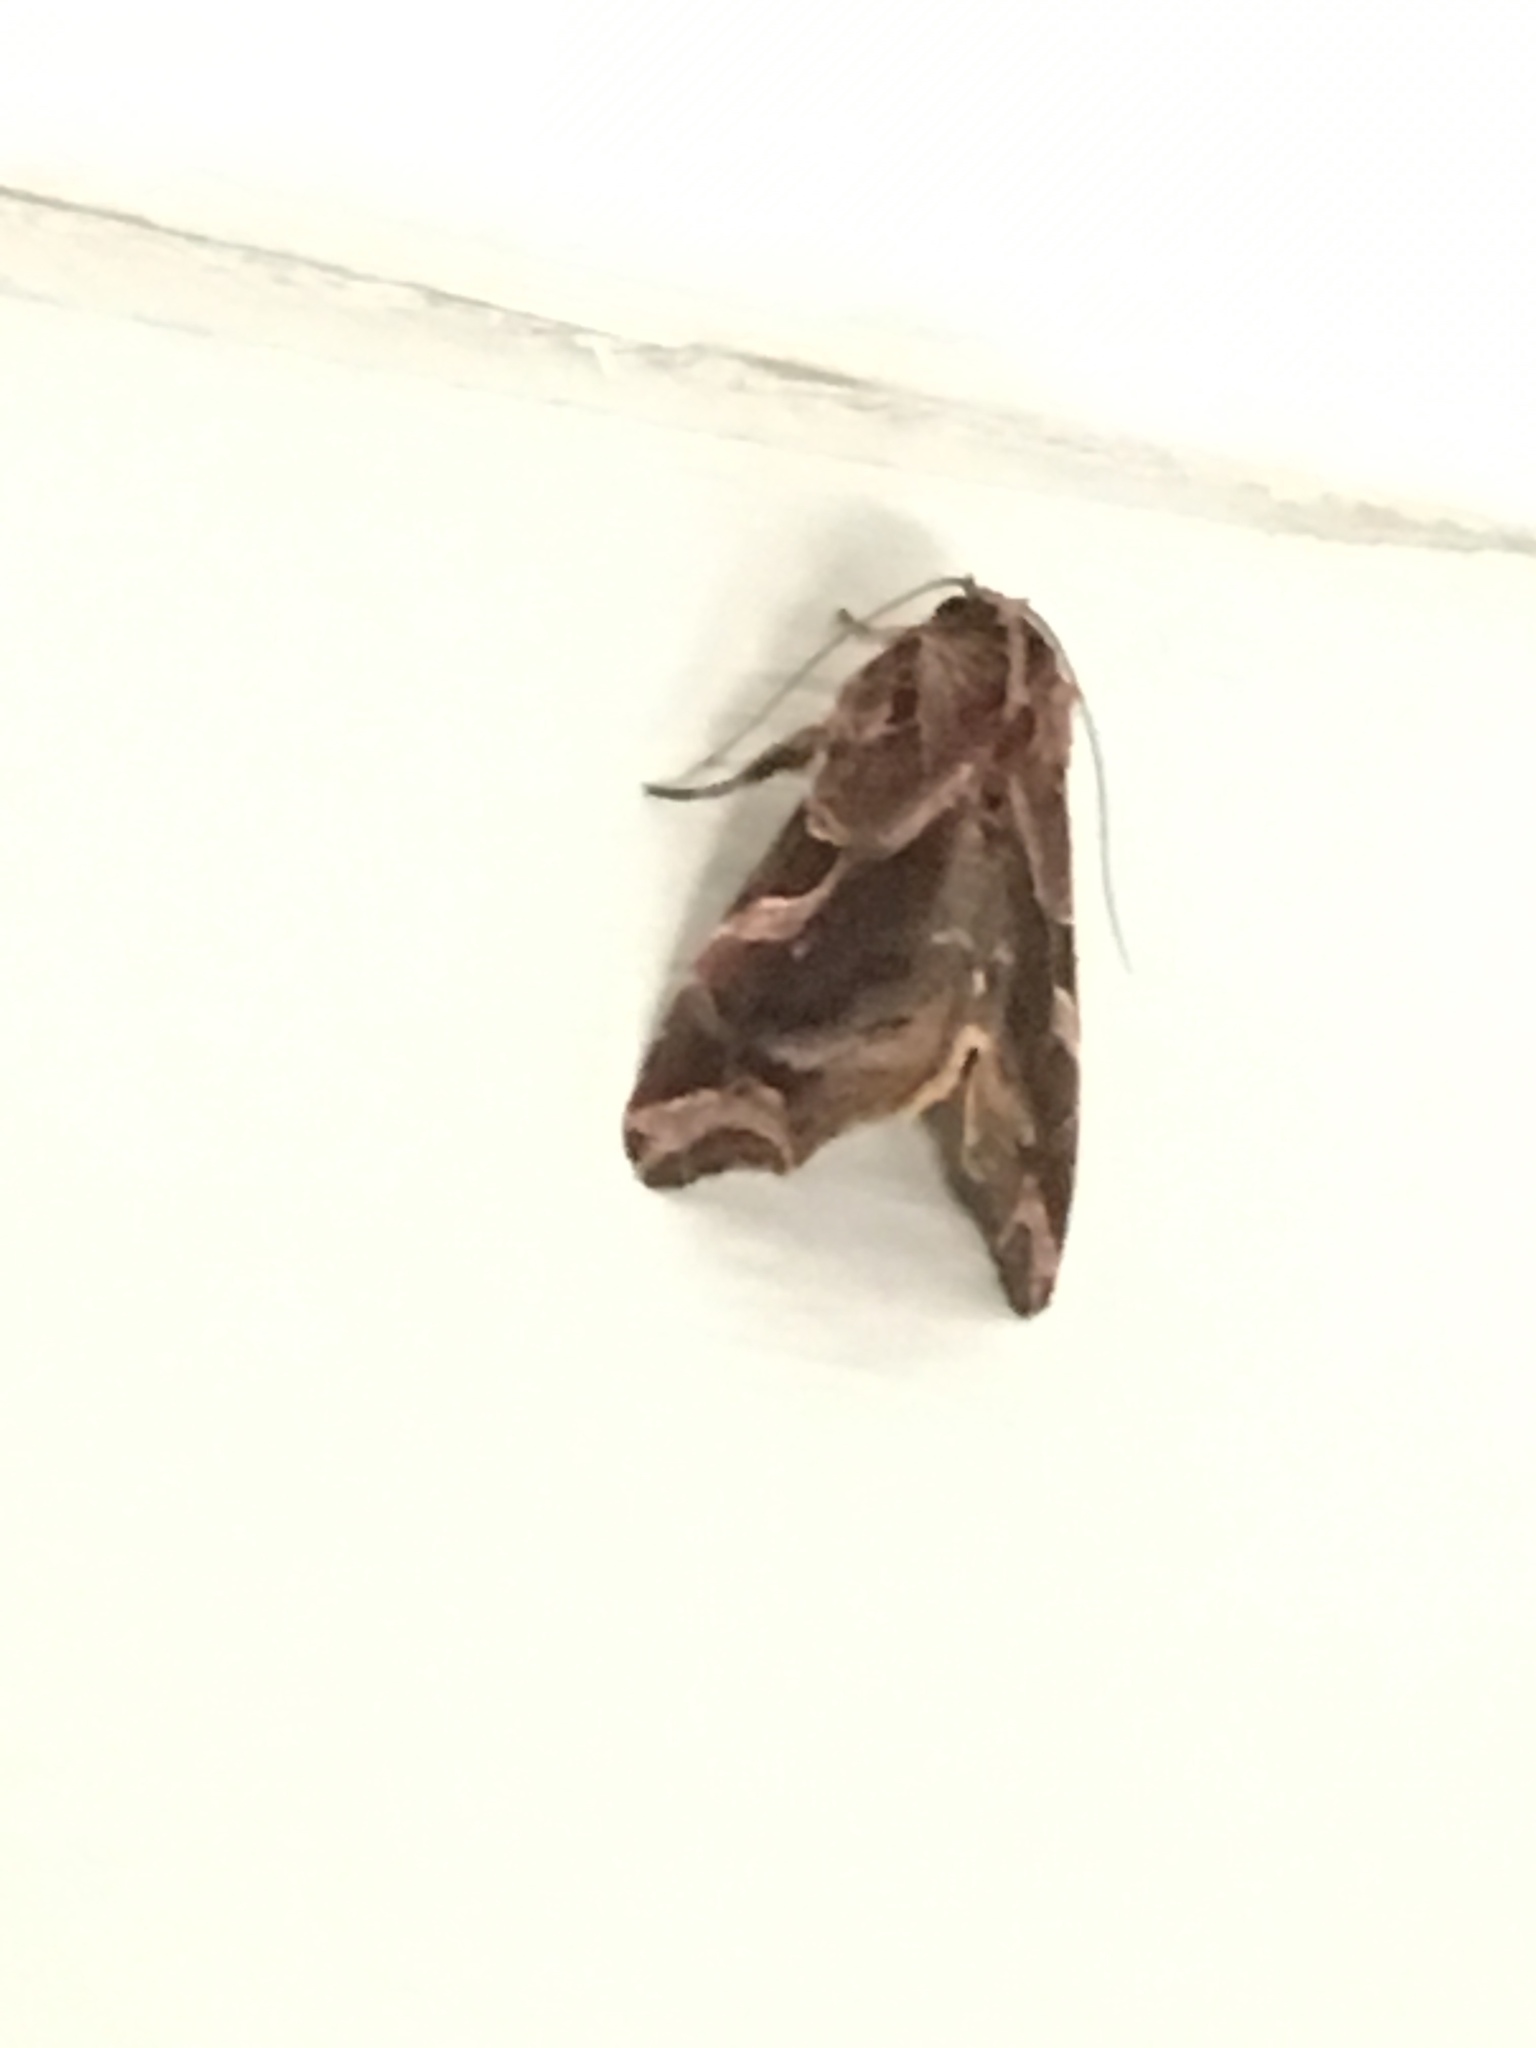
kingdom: Animalia
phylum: Arthropoda
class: Insecta
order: Lepidoptera
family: Noctuidae
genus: Callopistria
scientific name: Callopistria floridensis
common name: Florida fern moth
